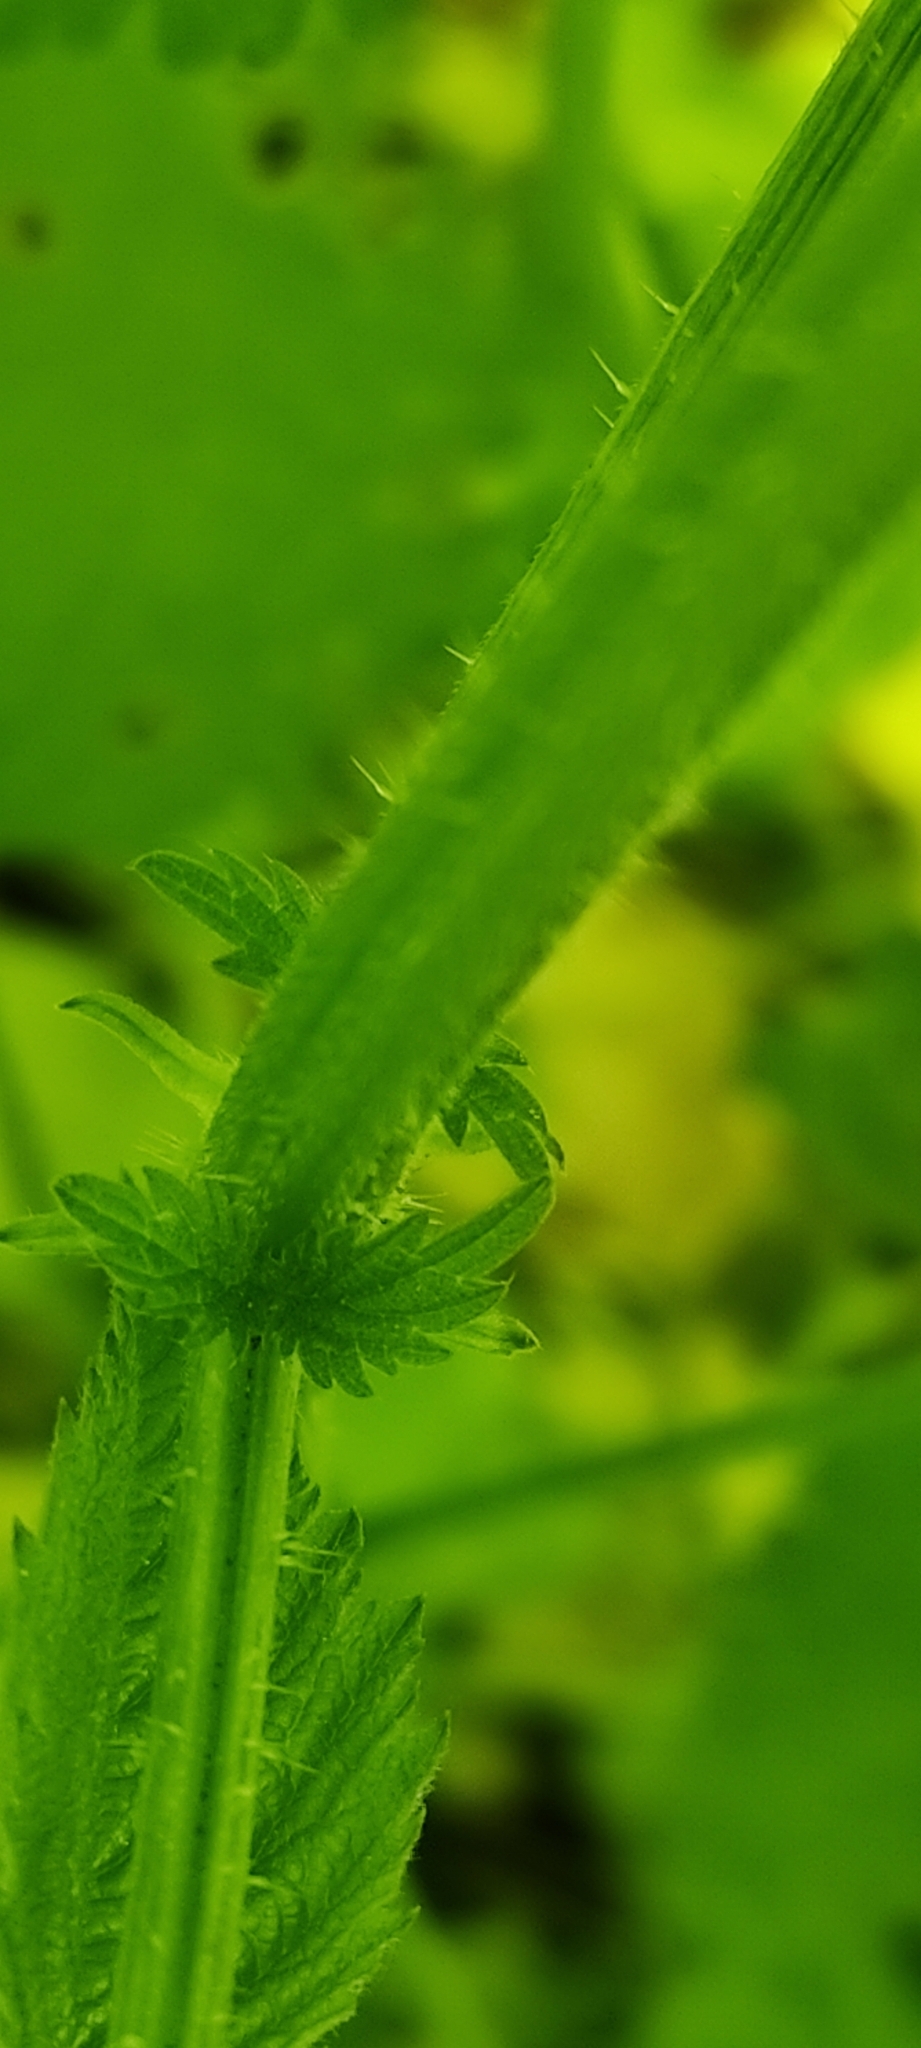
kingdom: Plantae
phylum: Tracheophyta
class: Magnoliopsida
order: Rosales
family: Urticaceae
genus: Urtica
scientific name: Urtica dioica
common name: Common nettle
